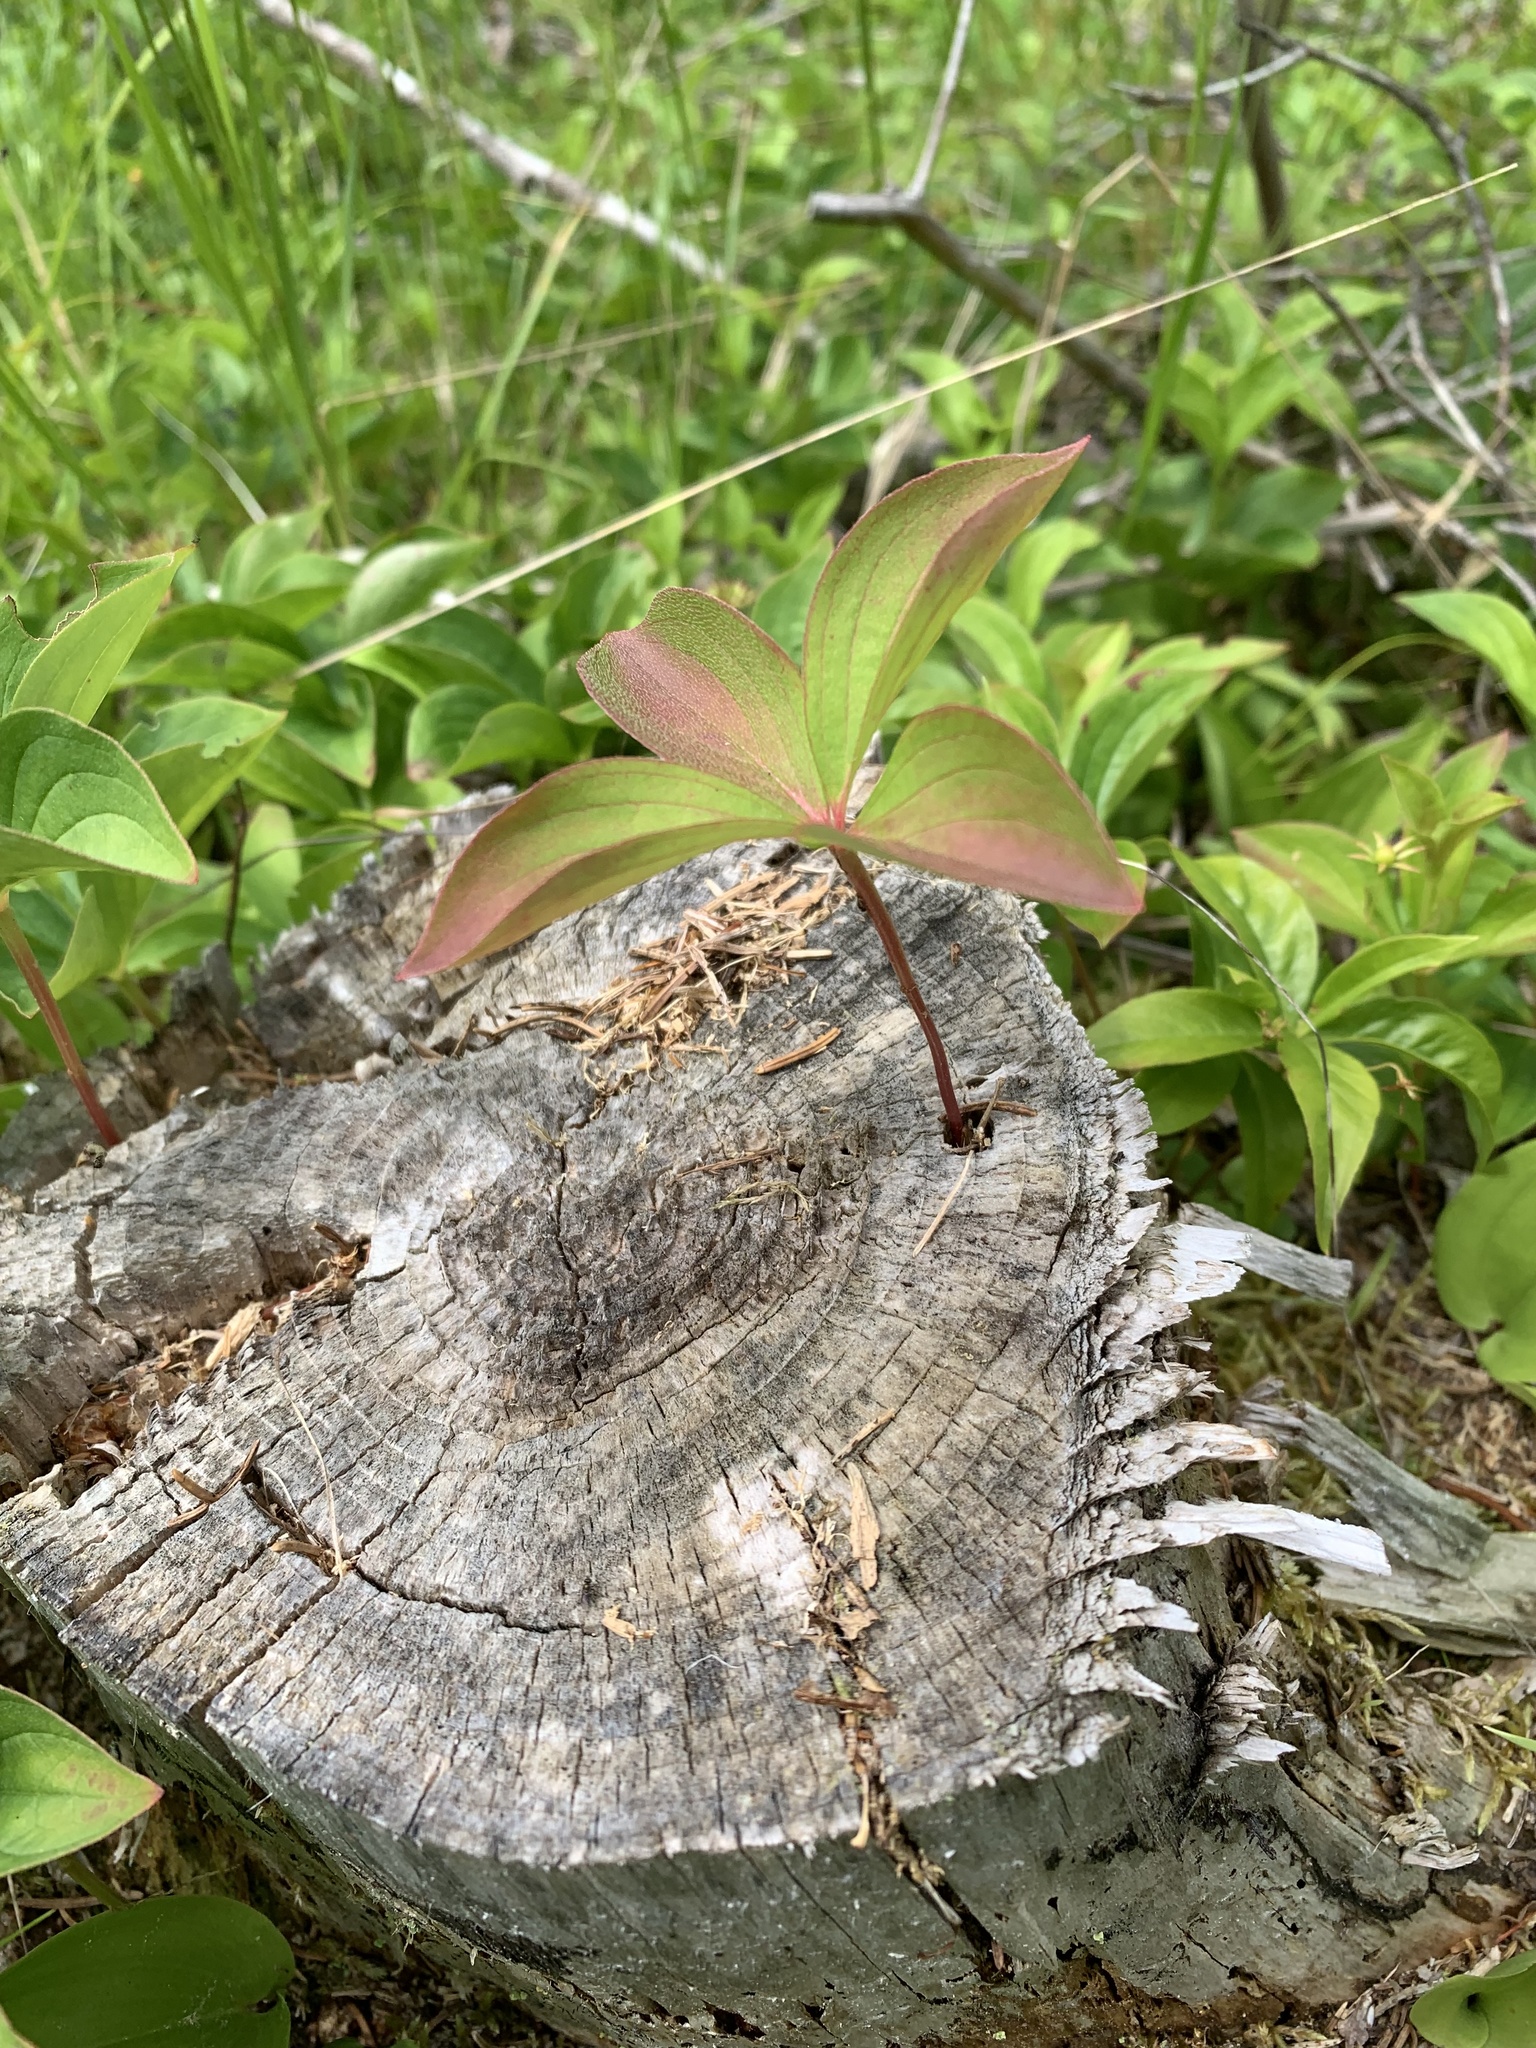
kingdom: Plantae
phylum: Tracheophyta
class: Magnoliopsida
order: Cornales
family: Cornaceae
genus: Cornus
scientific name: Cornus canadensis
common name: Creeping dogwood
